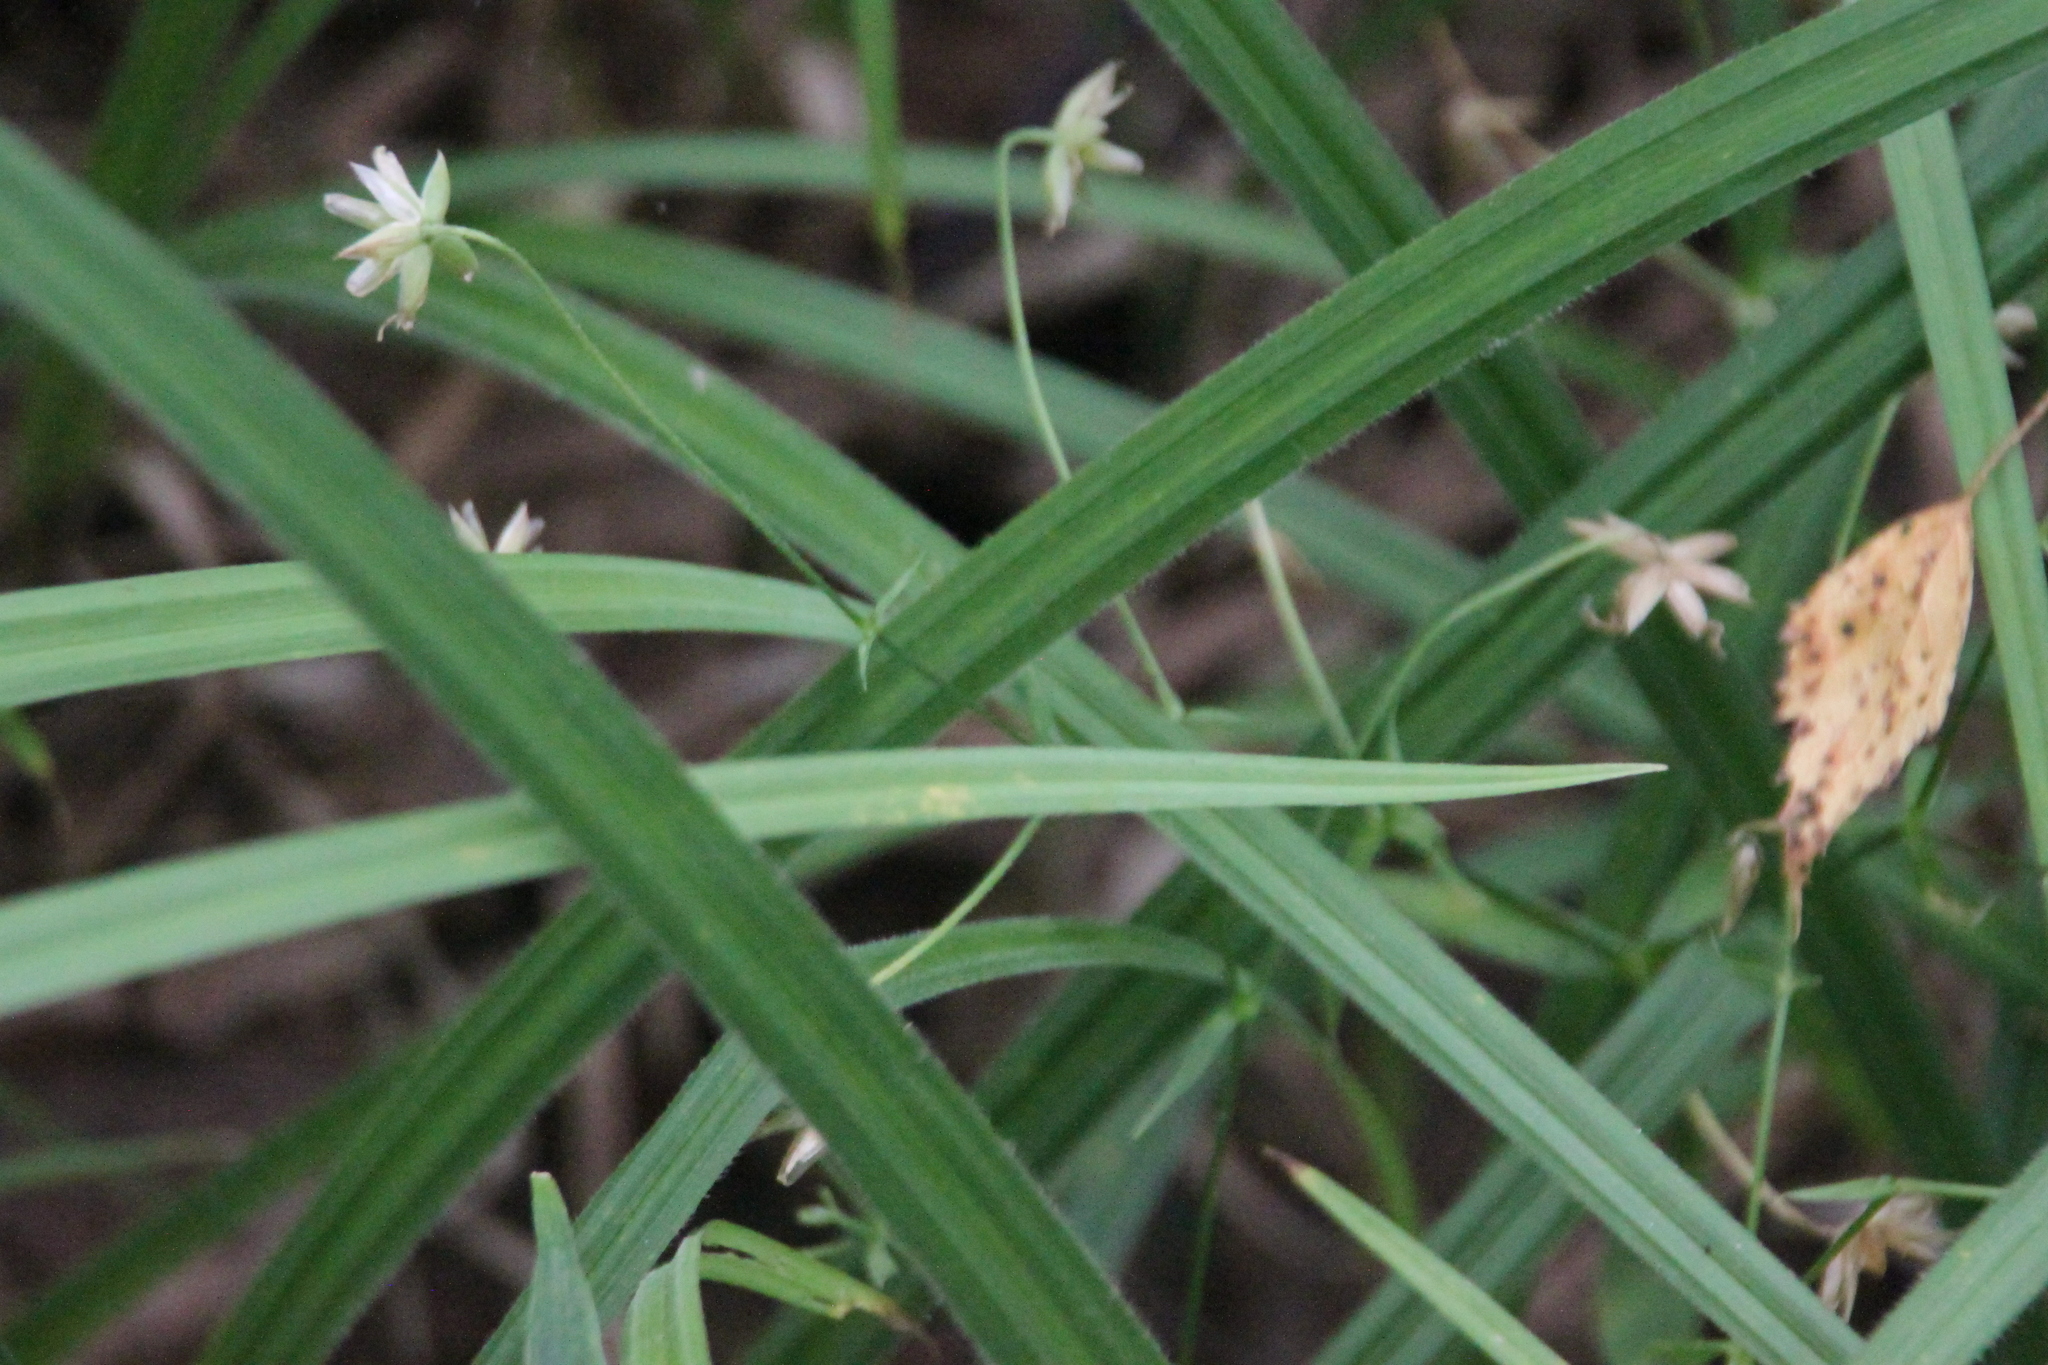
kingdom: Plantae
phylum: Tracheophyta
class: Liliopsida
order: Poales
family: Cyperaceae
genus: Carex
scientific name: Carex pilosa
